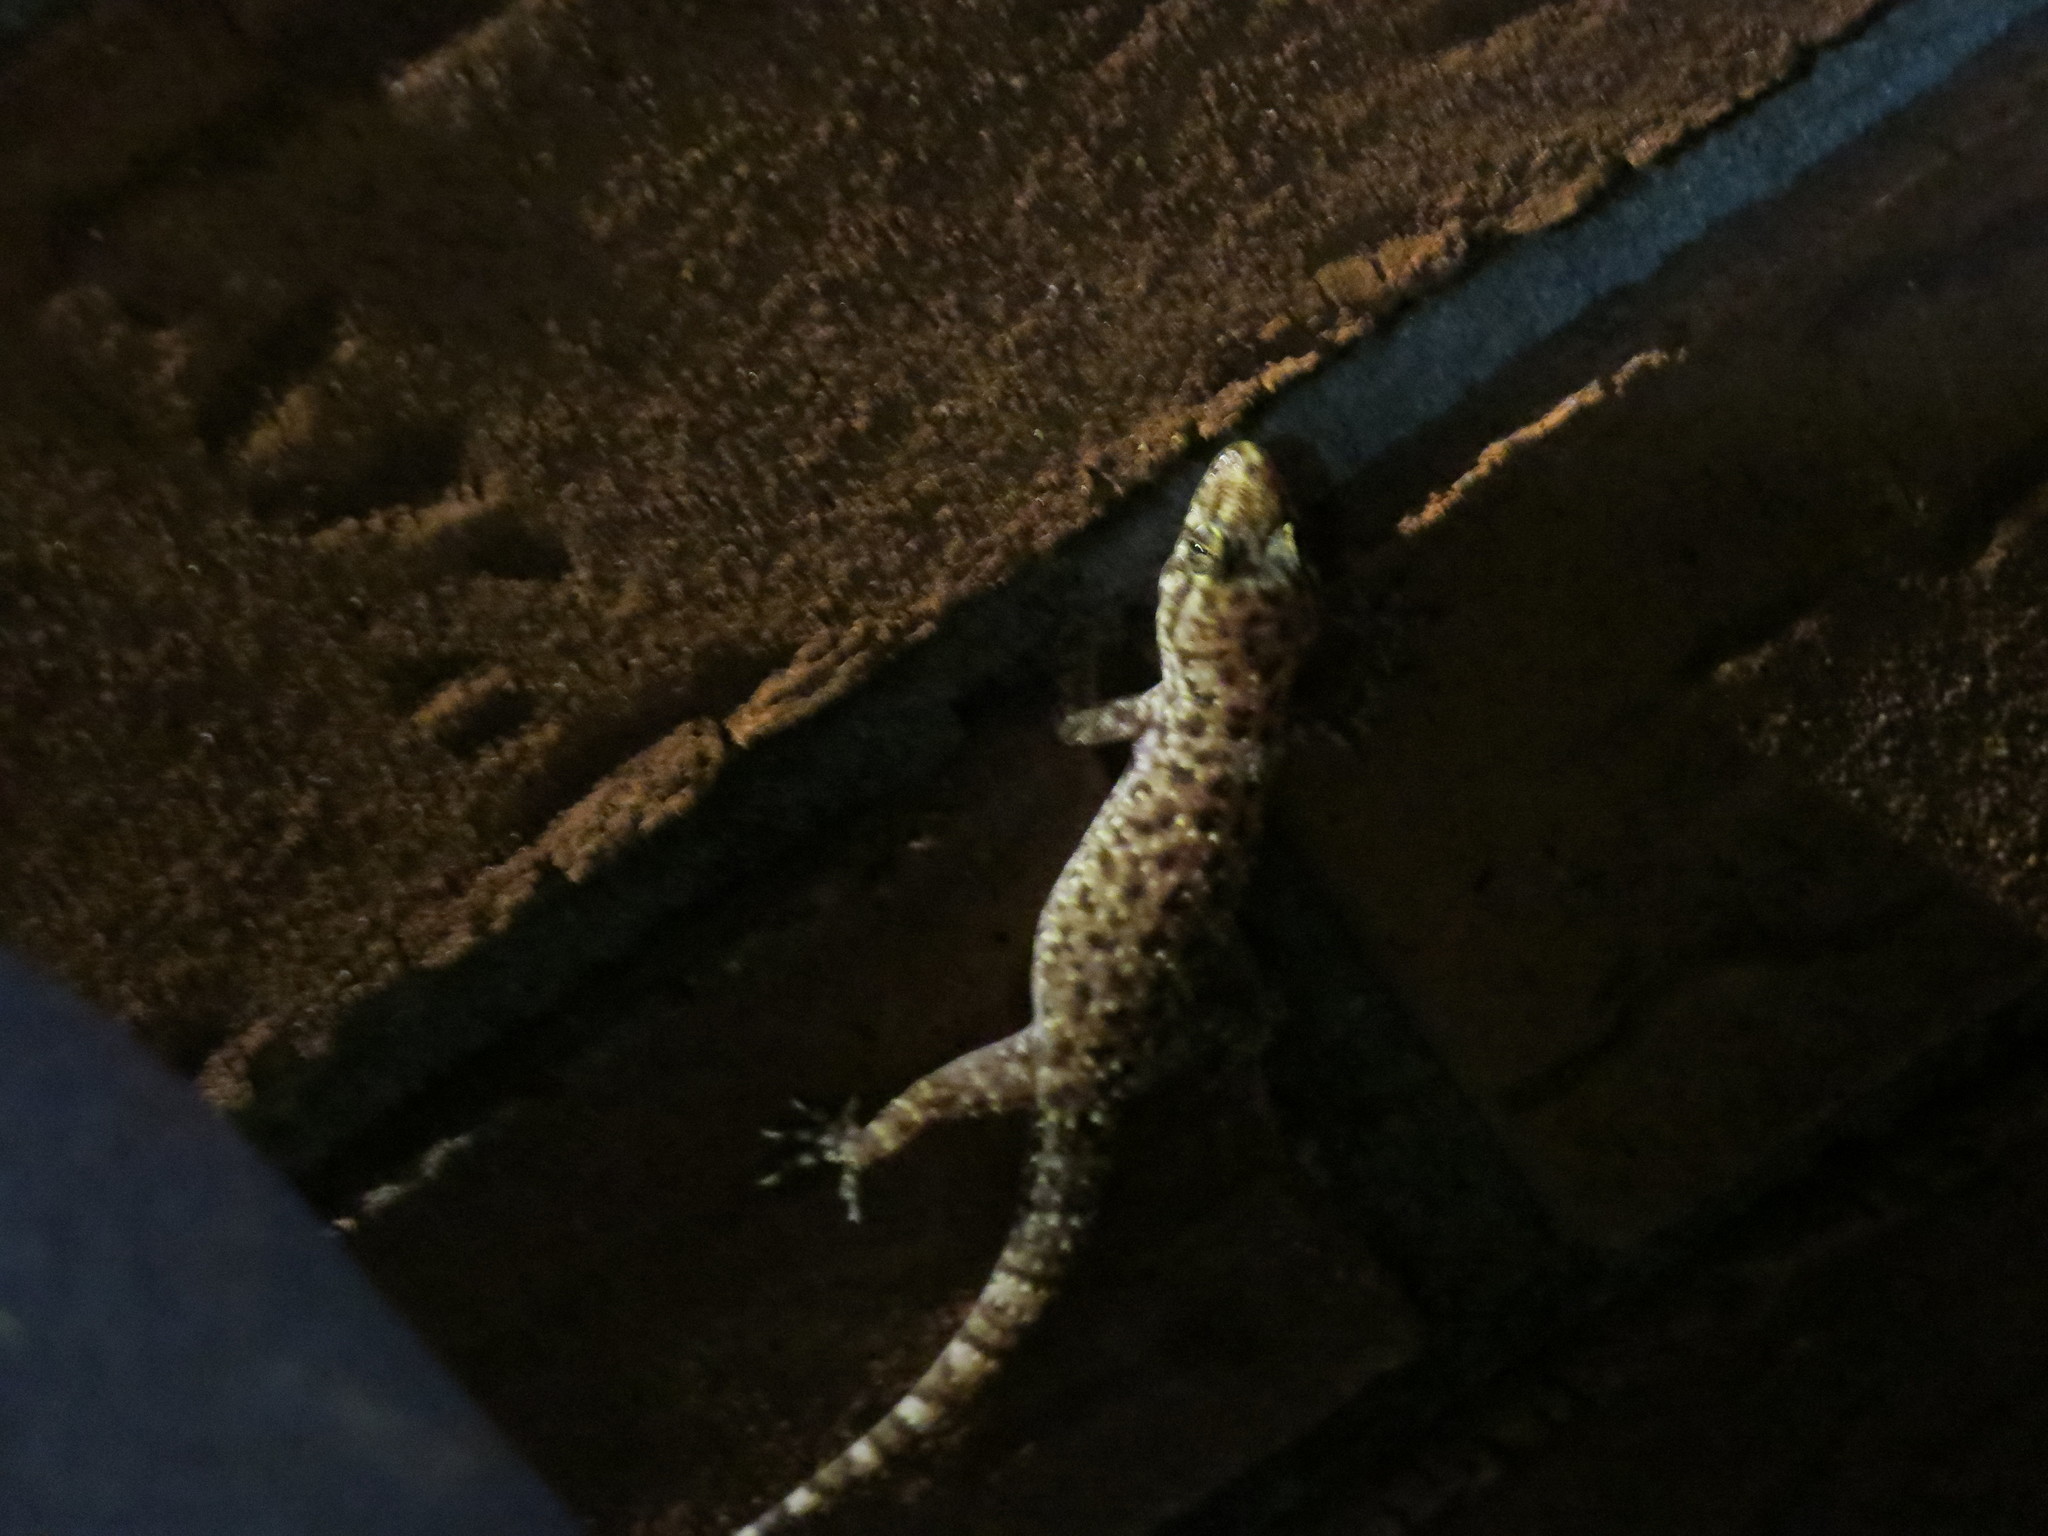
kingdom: Animalia
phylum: Chordata
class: Squamata
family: Gekkonidae
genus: Hemidactylus
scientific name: Hemidactylus turcicus
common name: Turkish gecko
